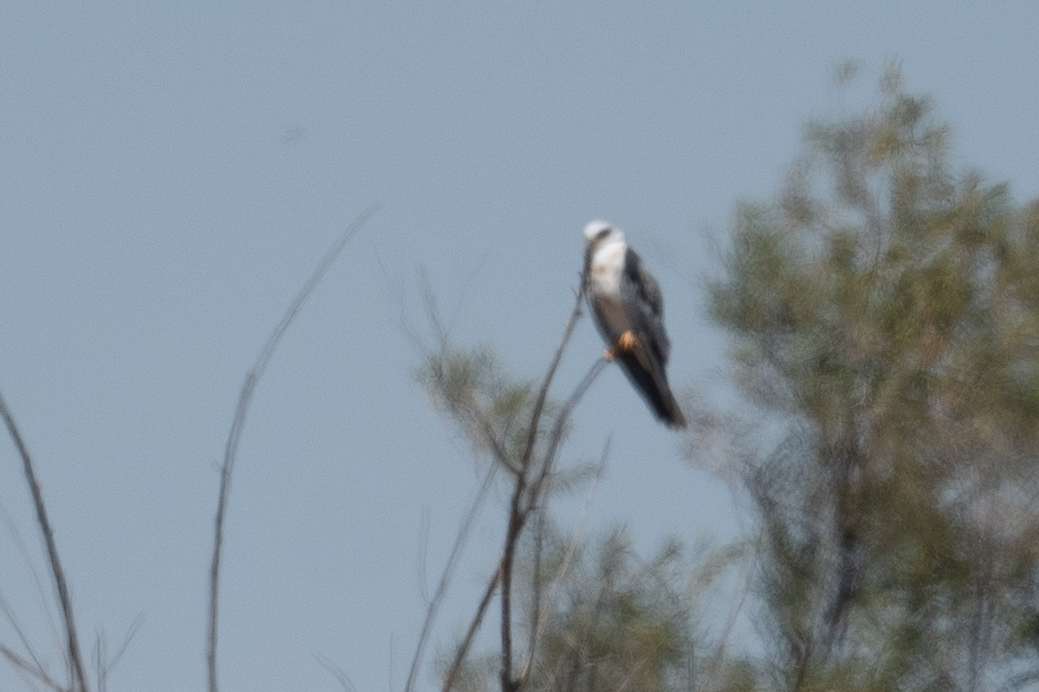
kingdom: Animalia
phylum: Chordata
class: Aves
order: Accipitriformes
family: Accipitridae
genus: Elanus
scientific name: Elanus leucurus
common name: White-tailed kite
